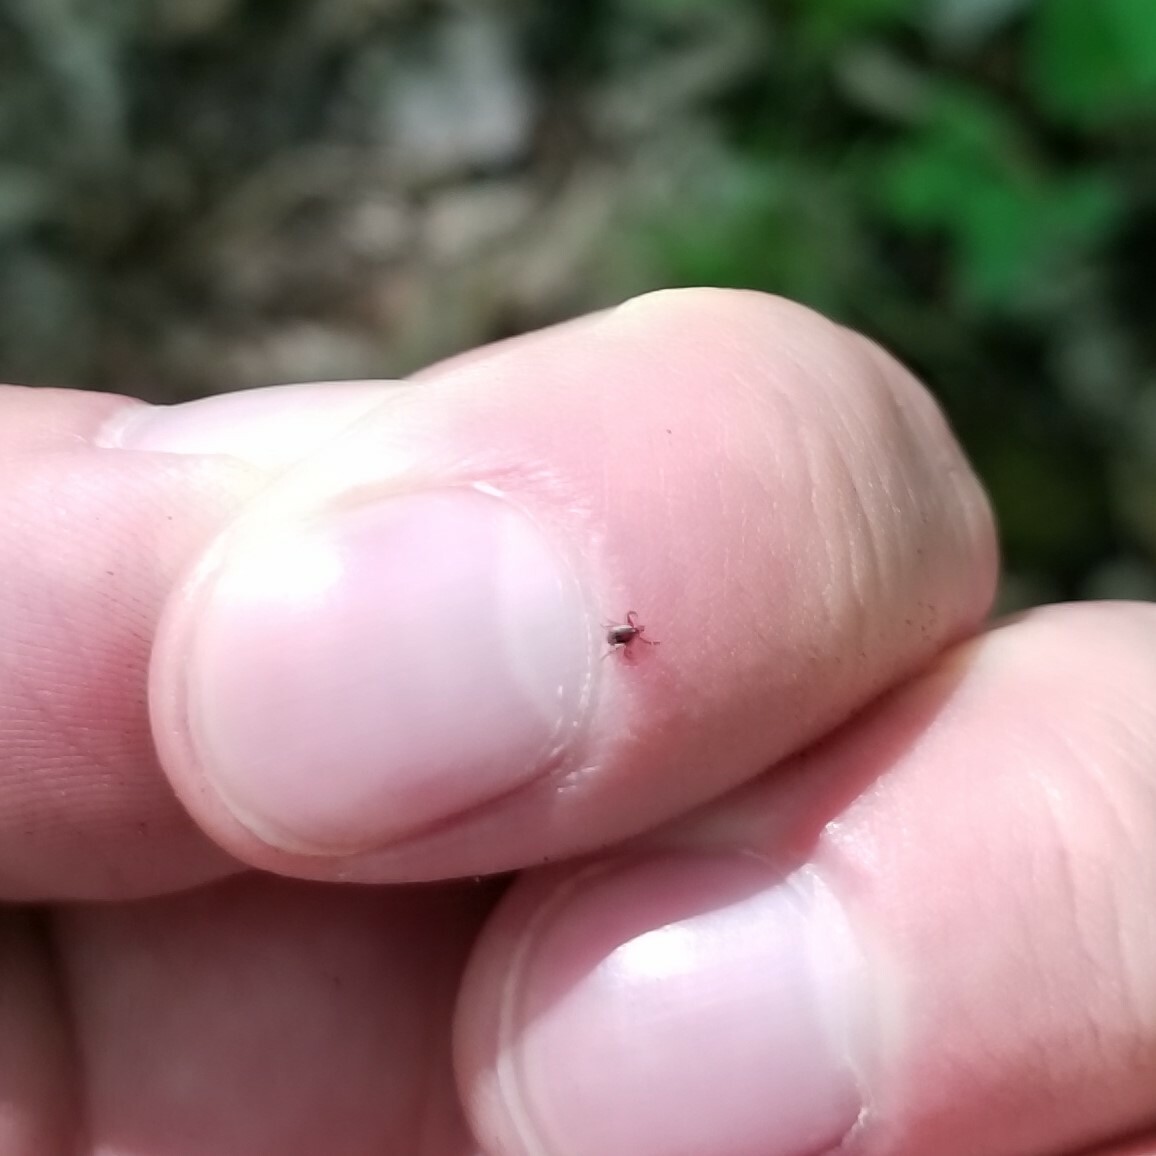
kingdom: Animalia
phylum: Arthropoda
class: Arachnida
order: Ixodida
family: Ixodidae
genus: Ixodes
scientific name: Ixodes scapularis
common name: Black legged tick
